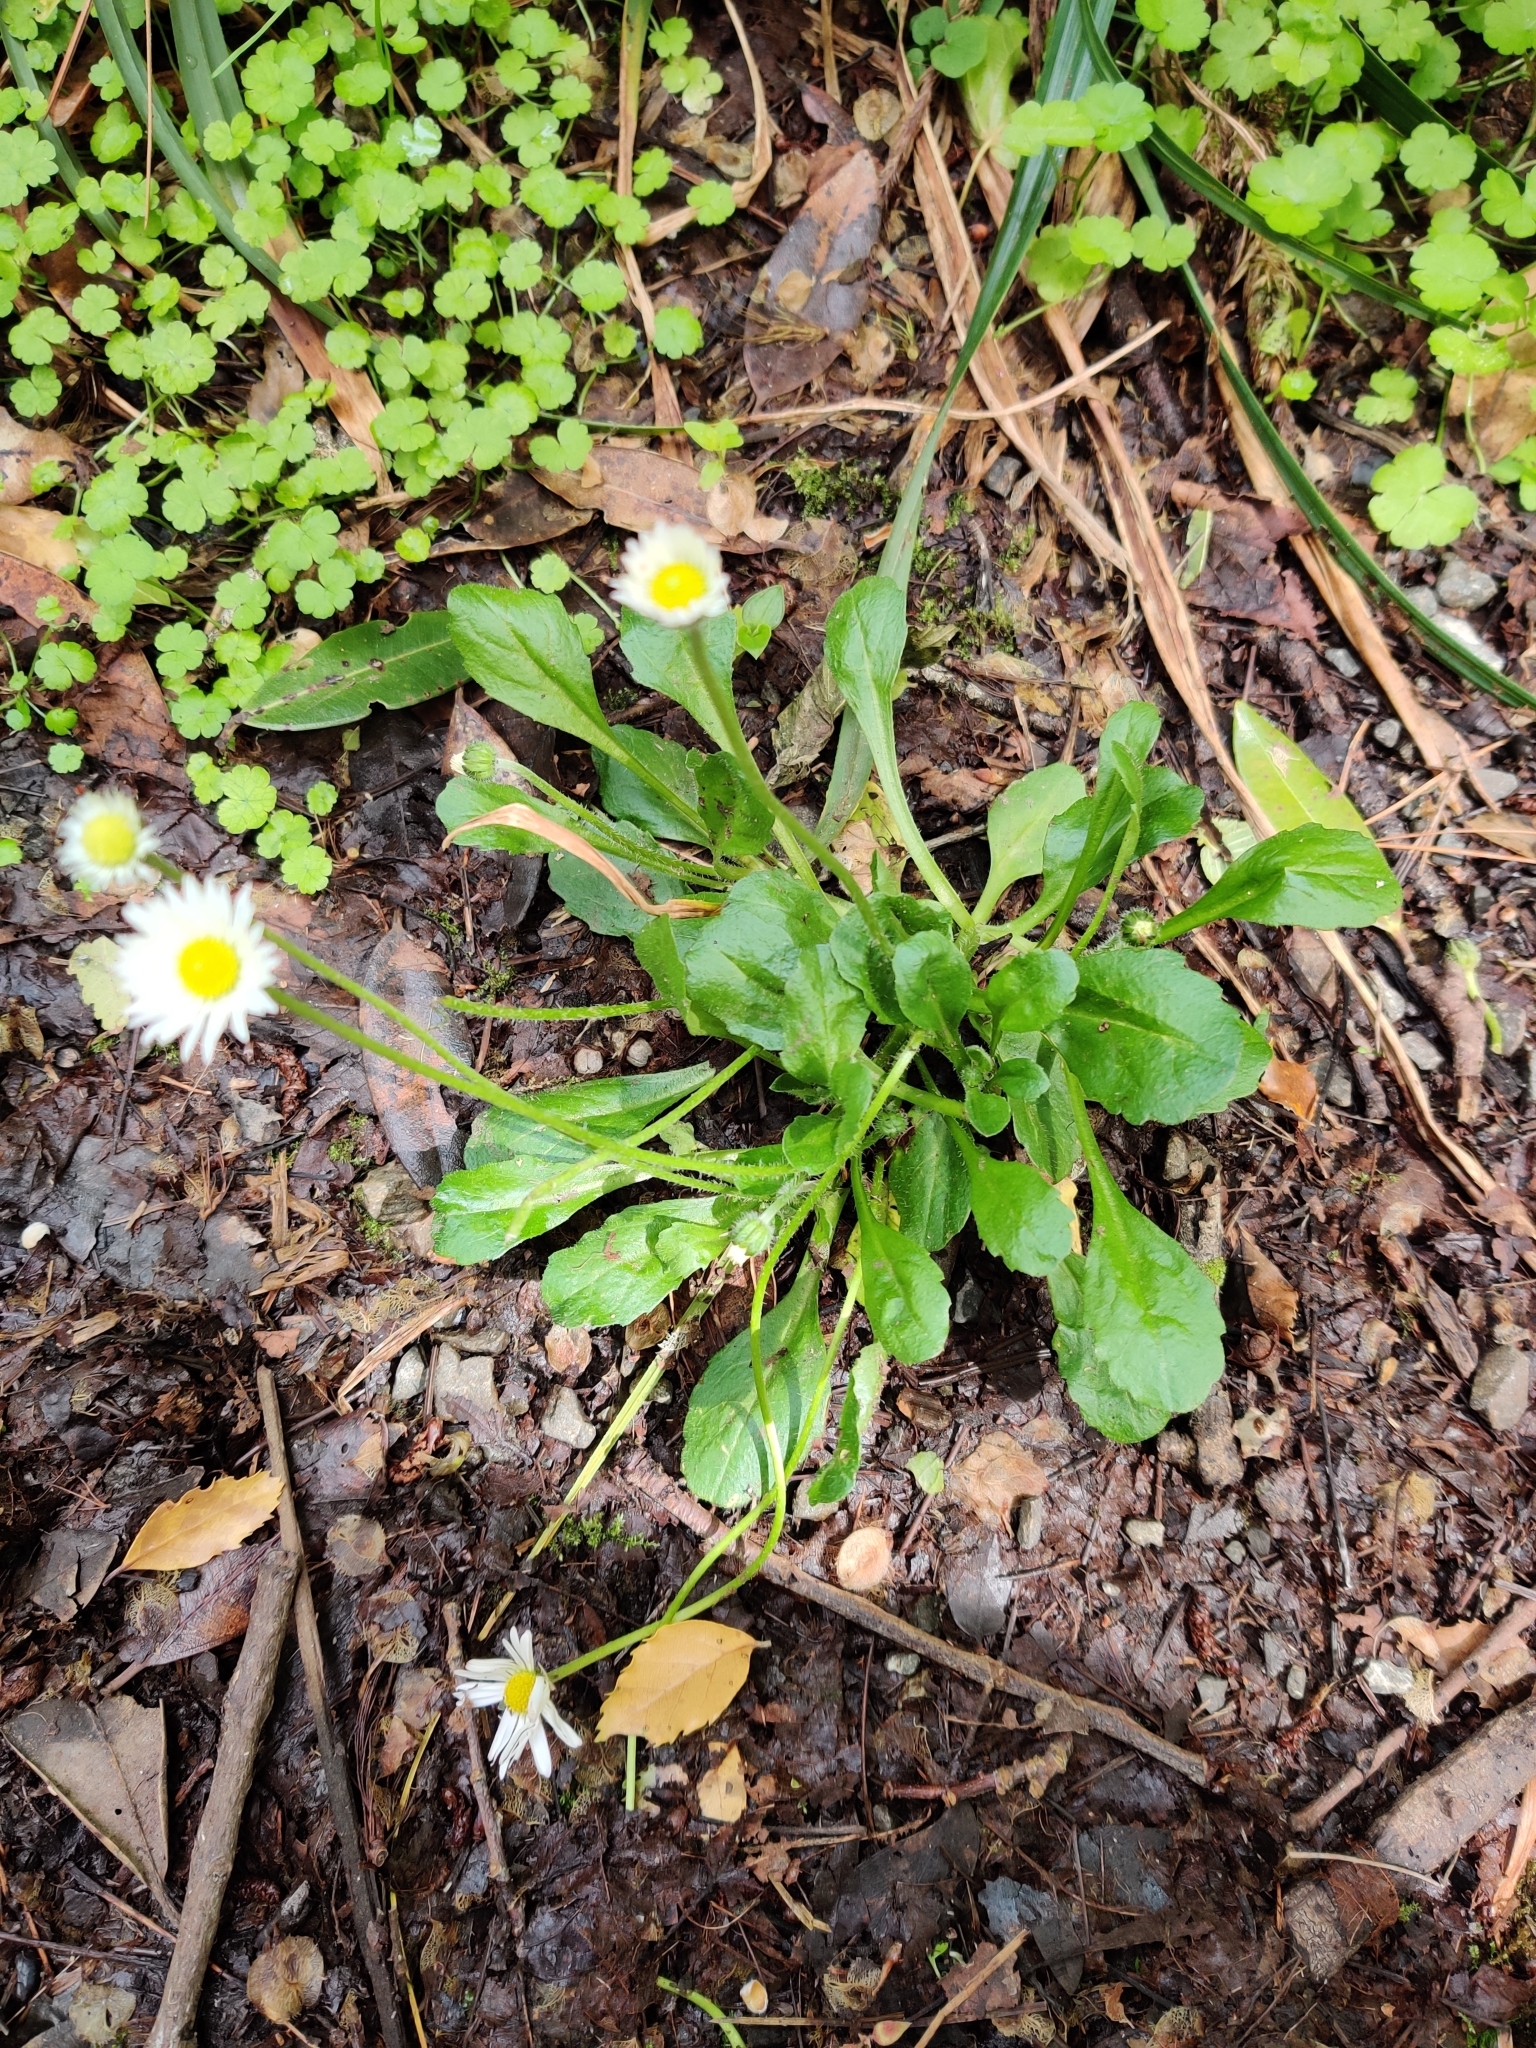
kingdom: Plantae
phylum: Tracheophyta
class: Magnoliopsida
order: Asterales
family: Asteraceae
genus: Bellis
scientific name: Bellis perennis
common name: Lawndaisy
